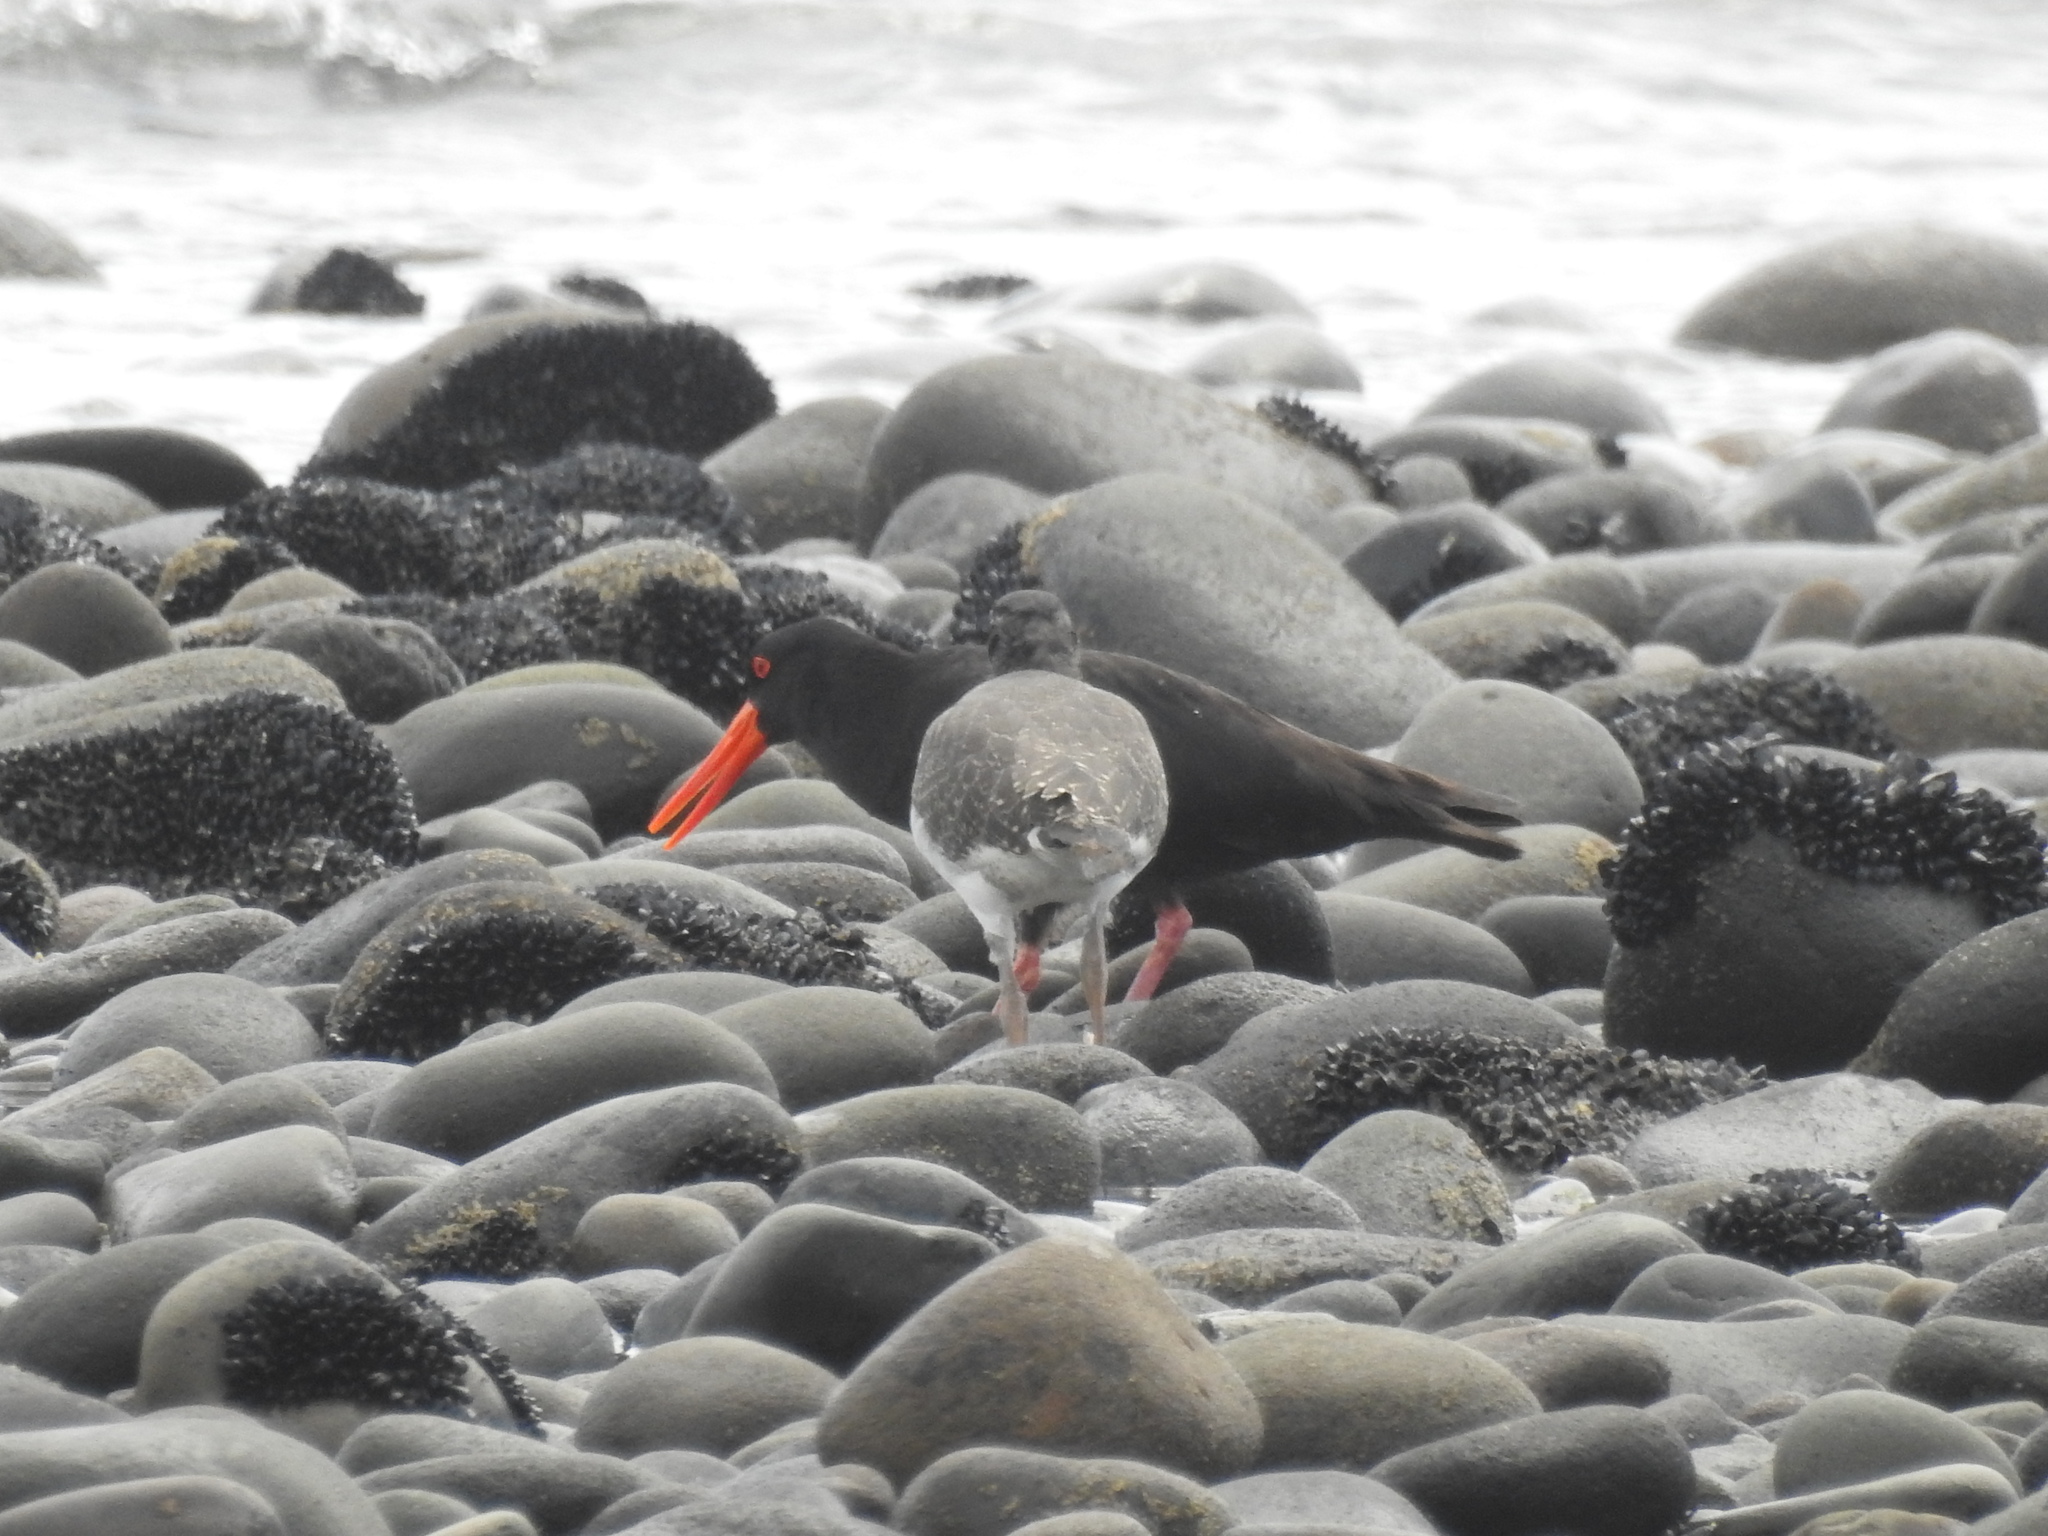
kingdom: Animalia
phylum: Chordata
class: Aves
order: Charadriiformes
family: Haematopodidae
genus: Haematopus
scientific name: Haematopus unicolor
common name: Variable oystercatcher
